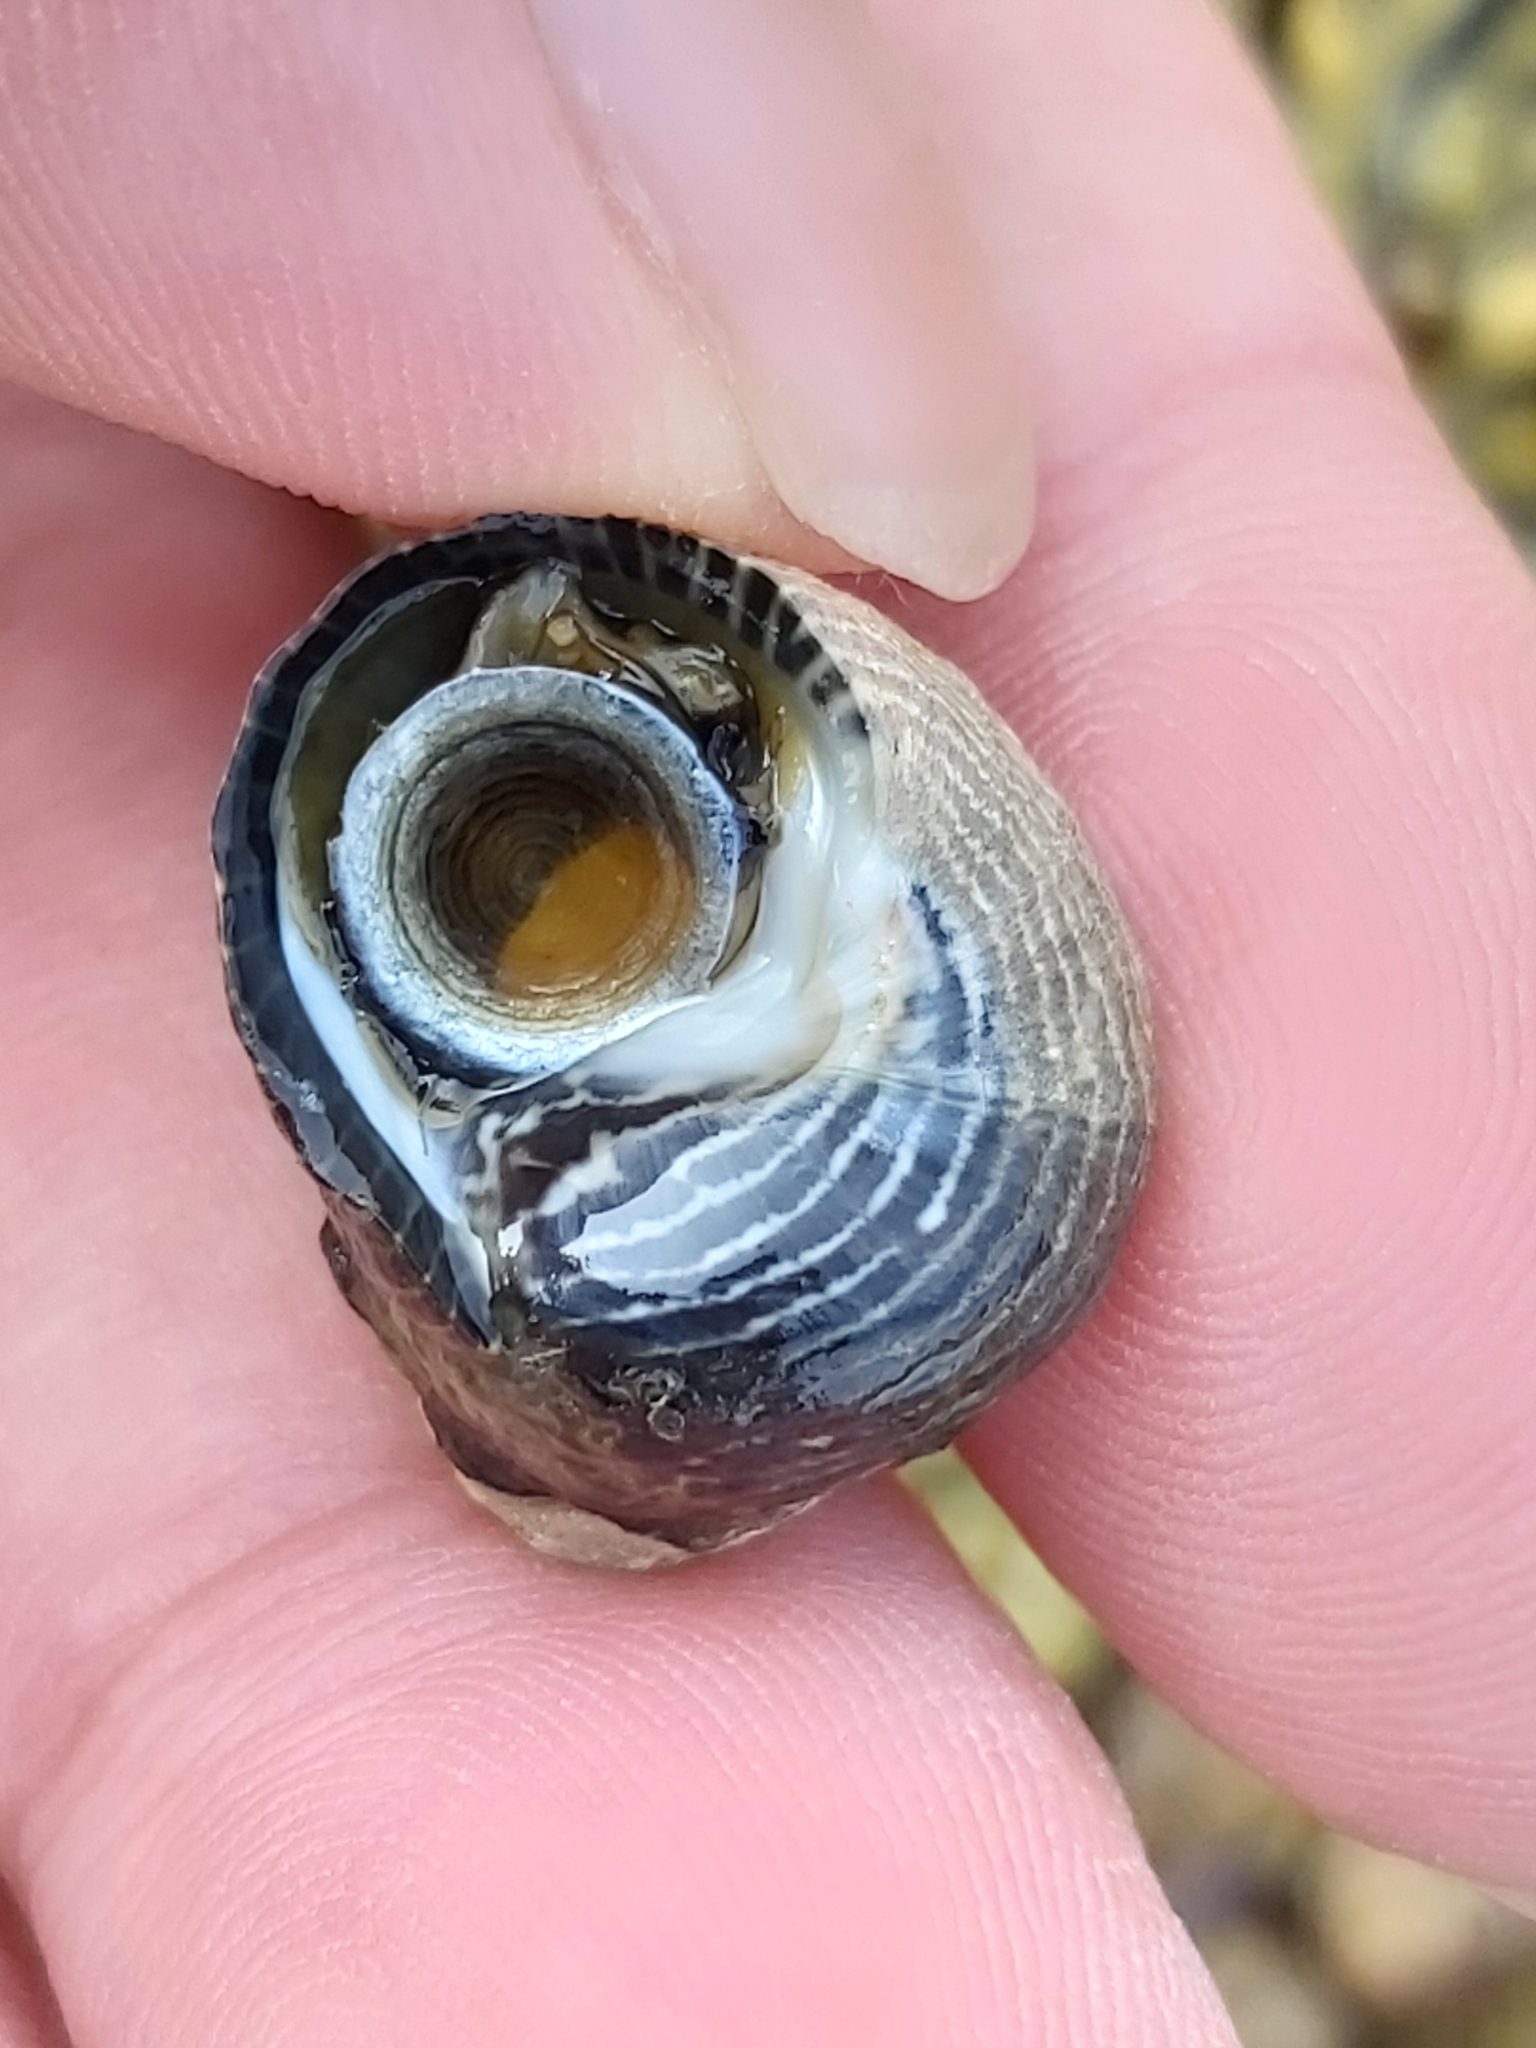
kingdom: Animalia
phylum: Mollusca
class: Gastropoda
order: Trochida
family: Trochidae
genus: Austrocochlea
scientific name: Austrocochlea porcata
